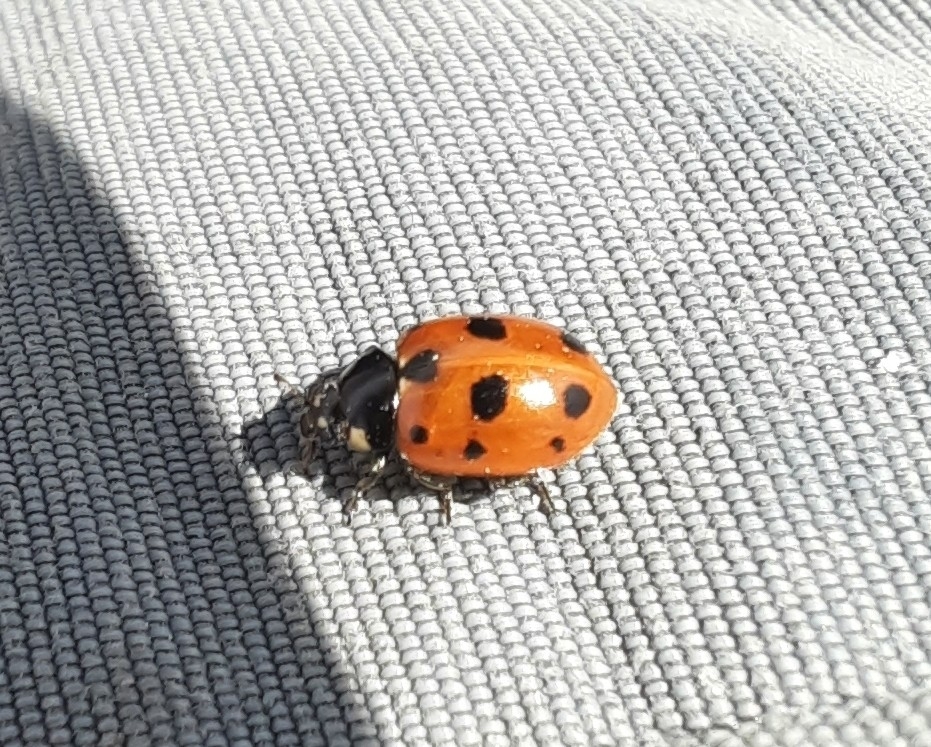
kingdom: Animalia
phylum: Arthropoda
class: Insecta
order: Coleoptera
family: Coccinellidae
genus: Coccinella
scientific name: Coccinella undecimpunctata
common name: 11-spot ladybird
